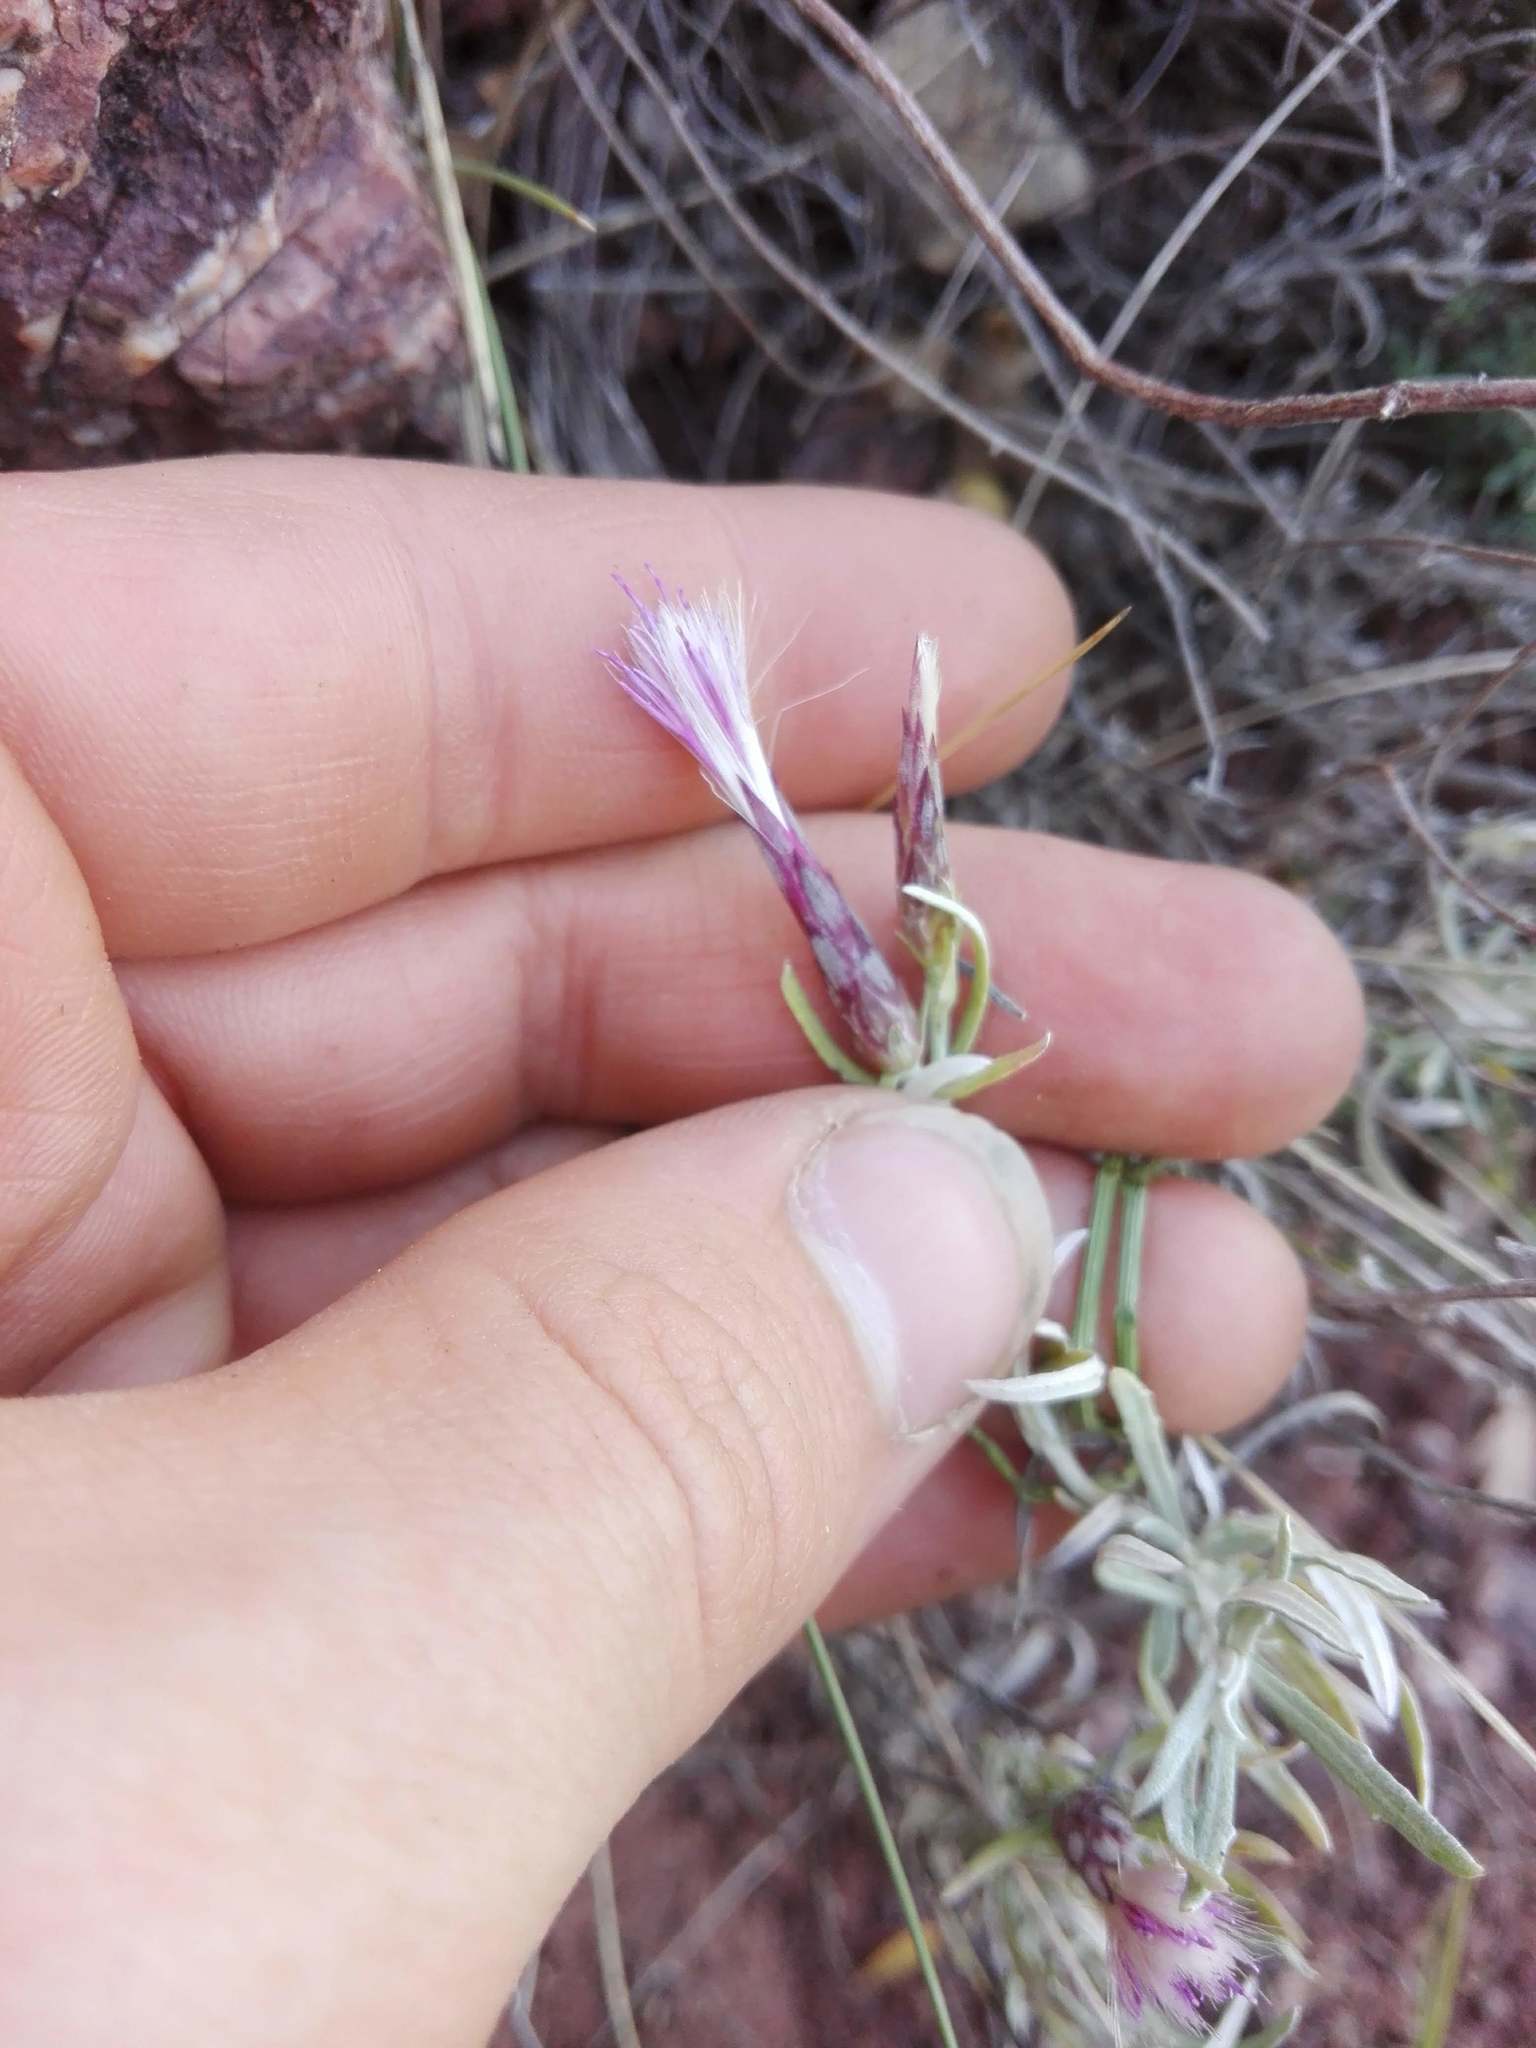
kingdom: Plantae
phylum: Tracheophyta
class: Magnoliopsida
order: Asterales
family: Asteraceae
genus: Staehelina
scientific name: Staehelina dubia
